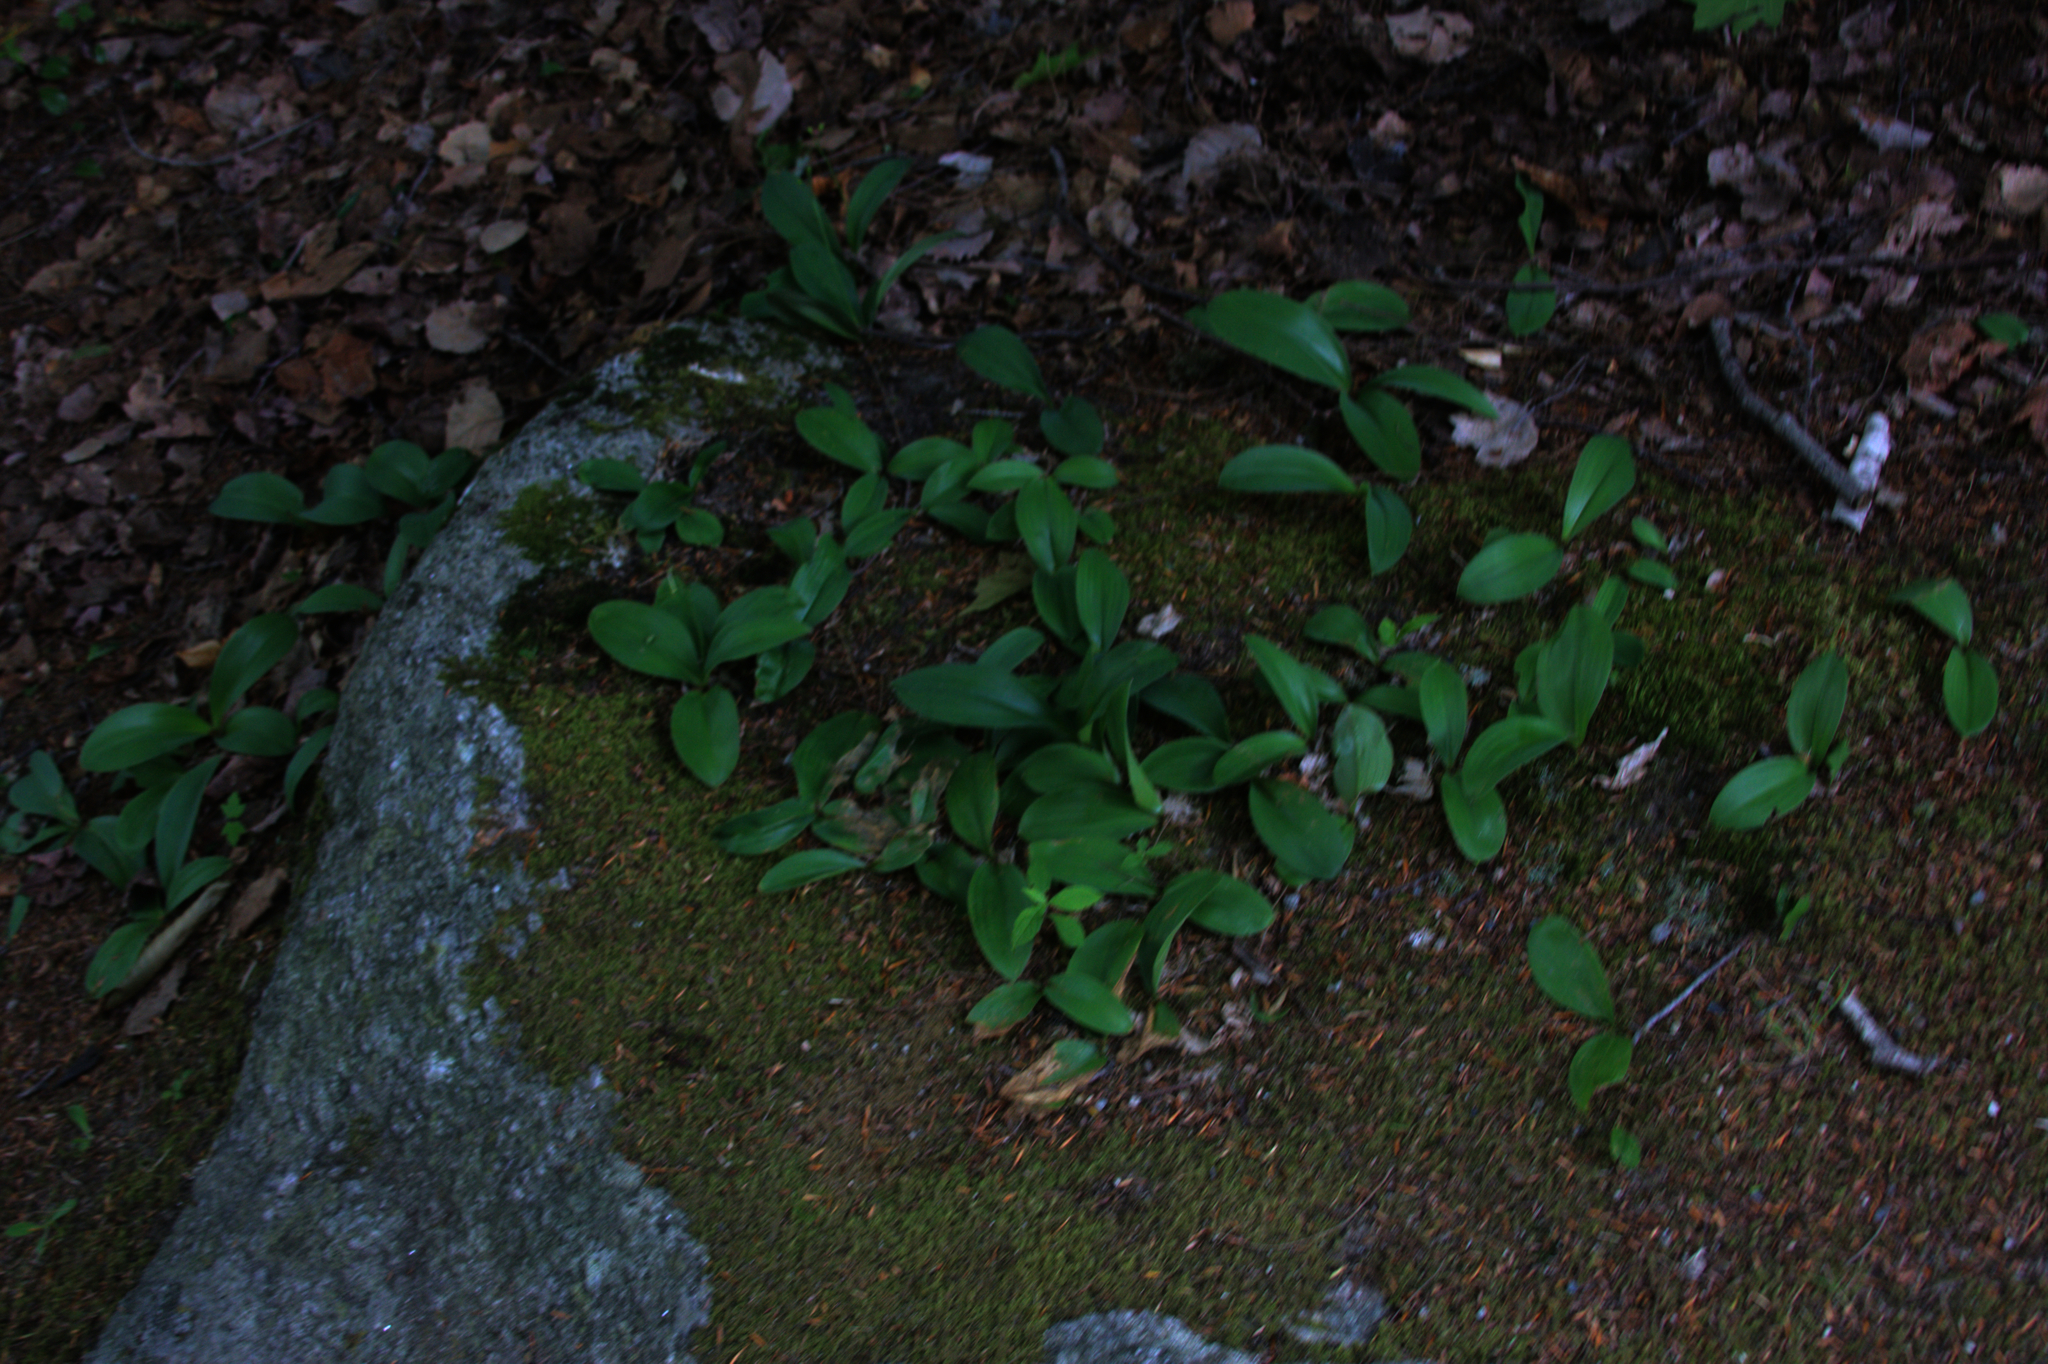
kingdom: Plantae
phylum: Tracheophyta
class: Liliopsida
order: Liliales
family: Liliaceae
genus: Clintonia
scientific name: Clintonia borealis
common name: Yellow clintonia
